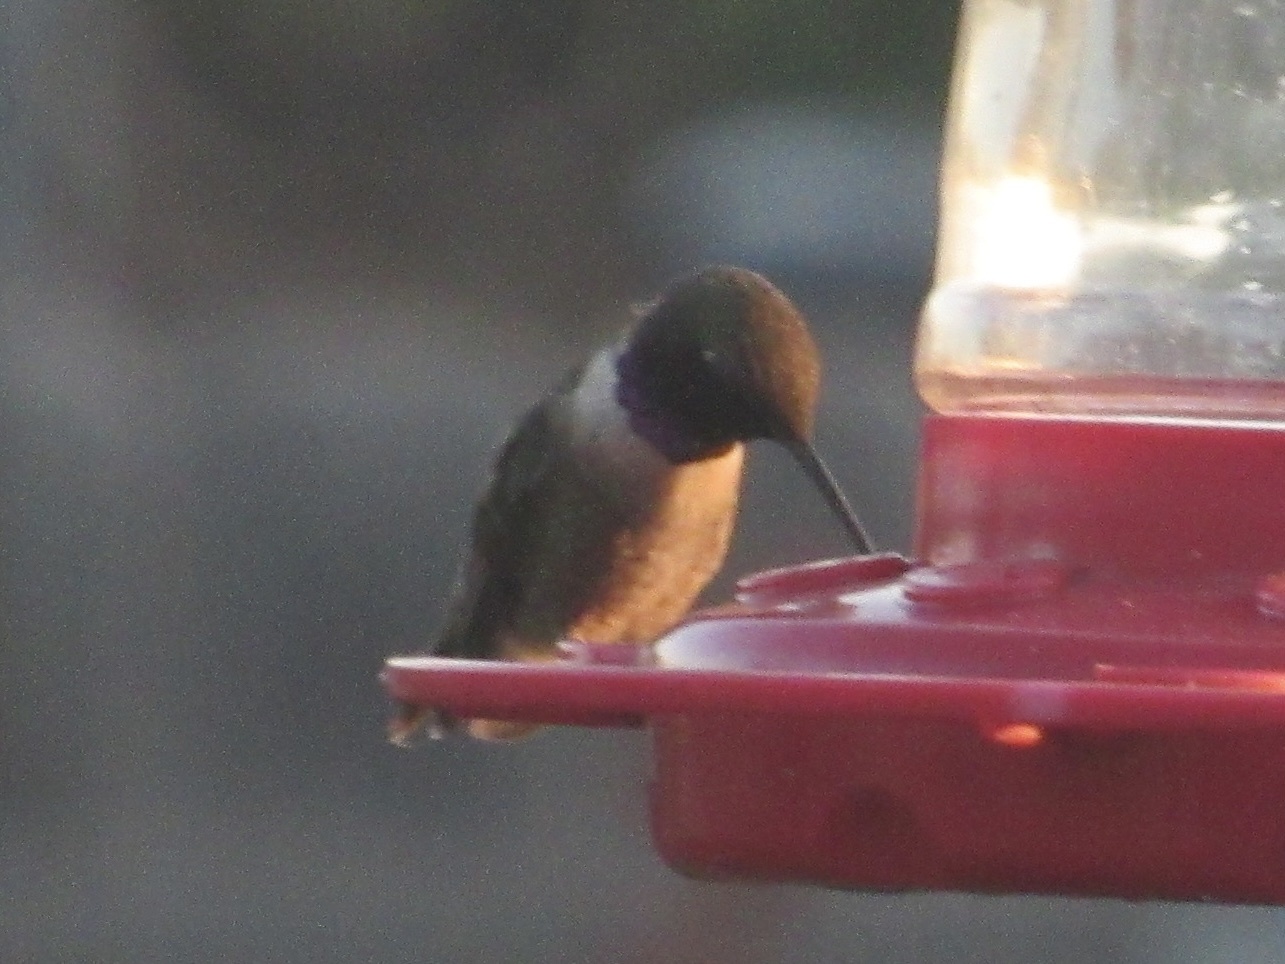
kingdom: Animalia
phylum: Chordata
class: Aves
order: Apodiformes
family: Trochilidae
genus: Archilochus
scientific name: Archilochus alexandri
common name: Black-chinned hummingbird
